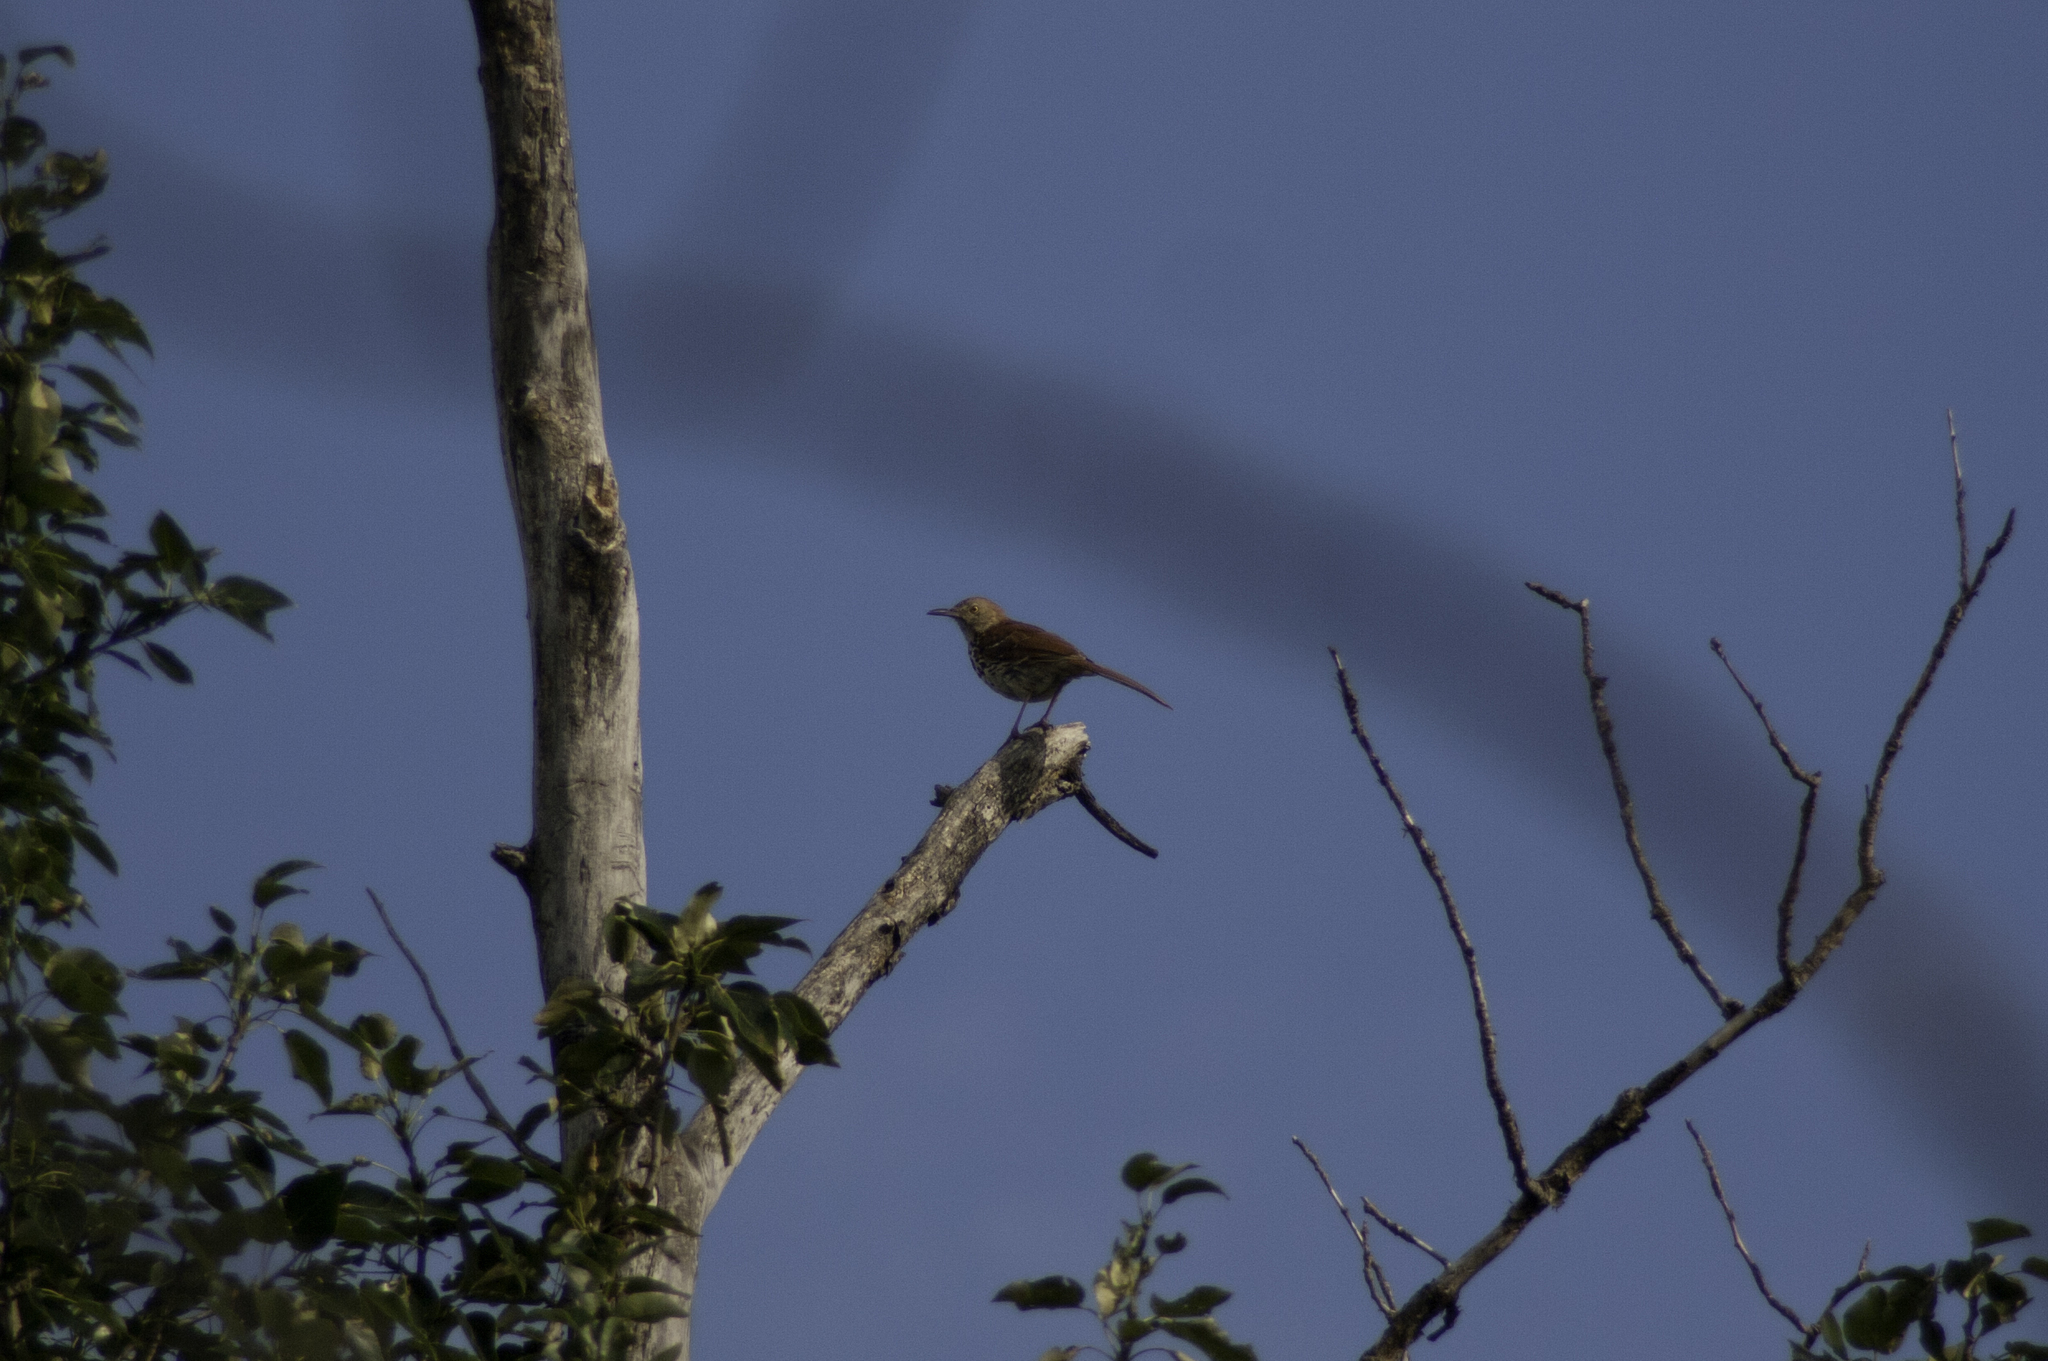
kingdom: Animalia
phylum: Chordata
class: Aves
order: Passeriformes
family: Mimidae
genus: Toxostoma
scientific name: Toxostoma rufum
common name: Brown thrasher
